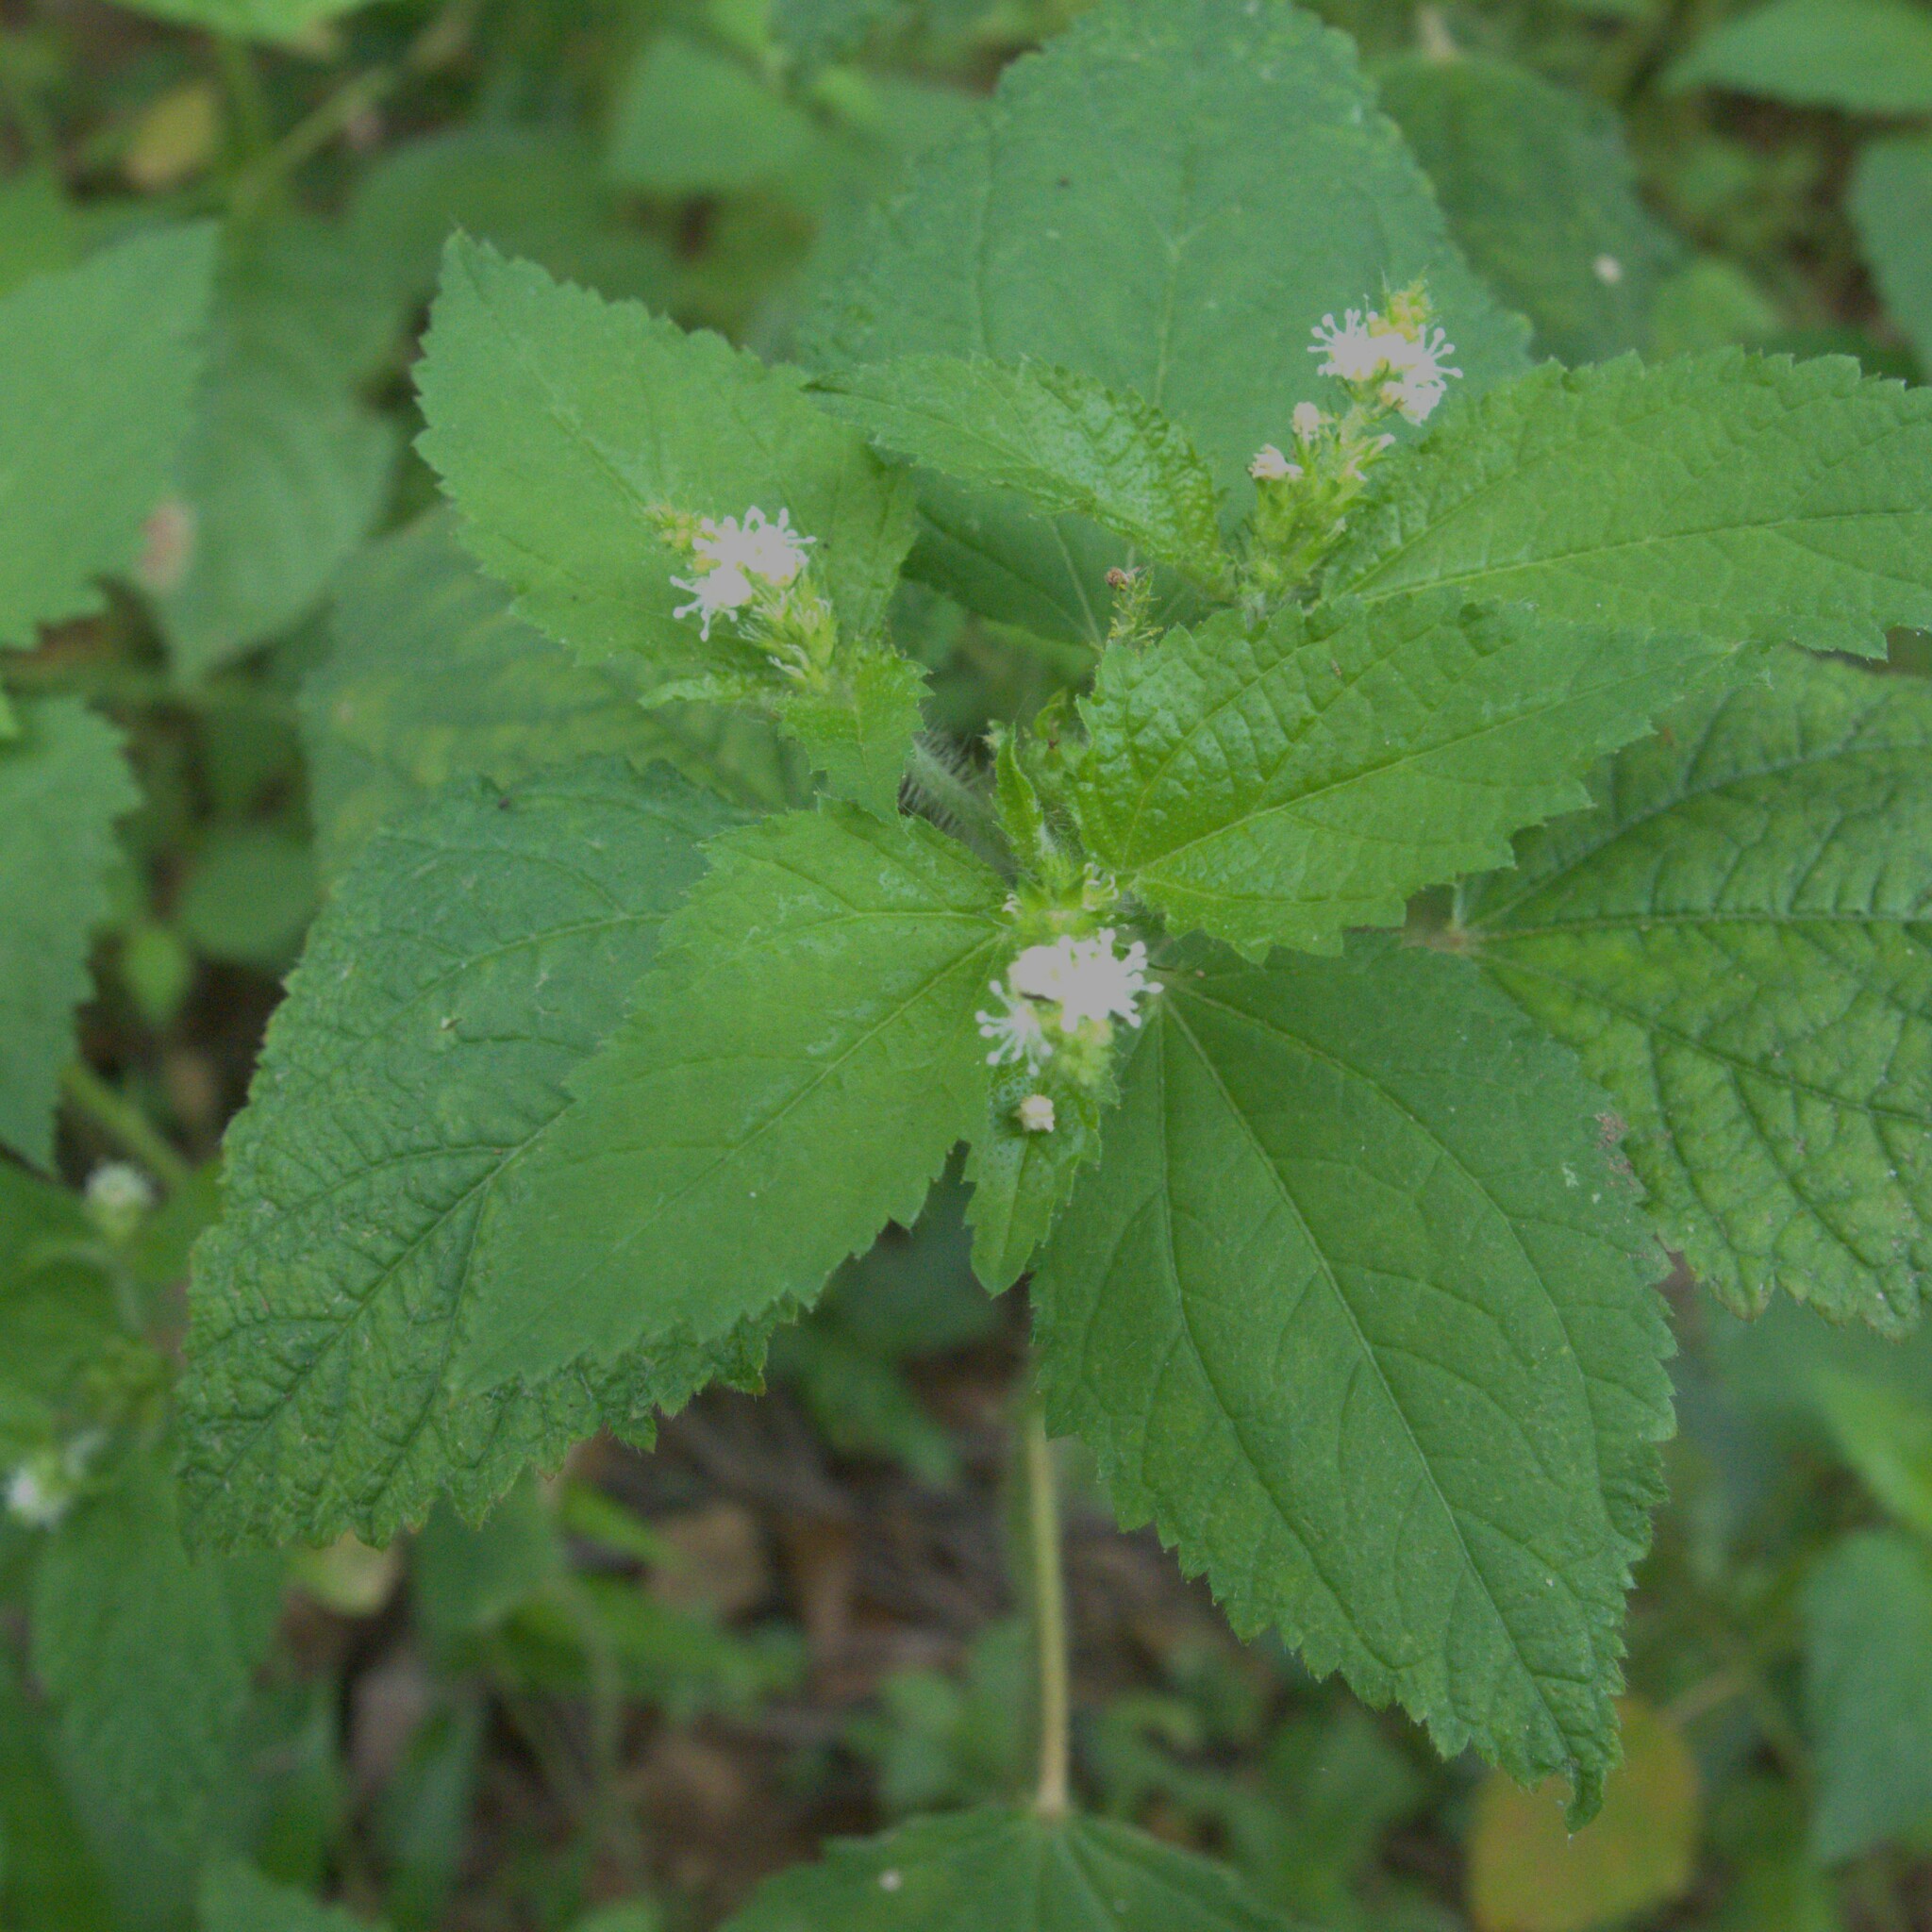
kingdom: Plantae
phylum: Tracheophyta
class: Magnoliopsida
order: Malpighiales
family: Euphorbiaceae
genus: Croton
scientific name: Croton hirtus
